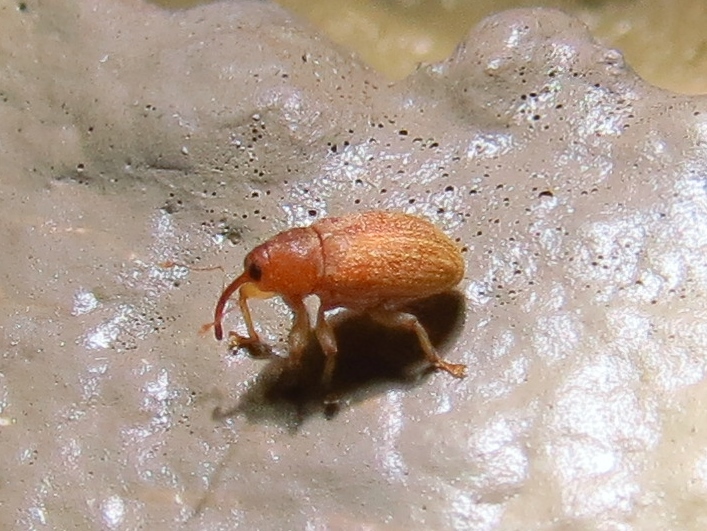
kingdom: Animalia
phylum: Arthropoda
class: Insecta
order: Coleoptera
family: Curculionidae
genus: Lignyodes
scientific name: Lignyodes helvolus
